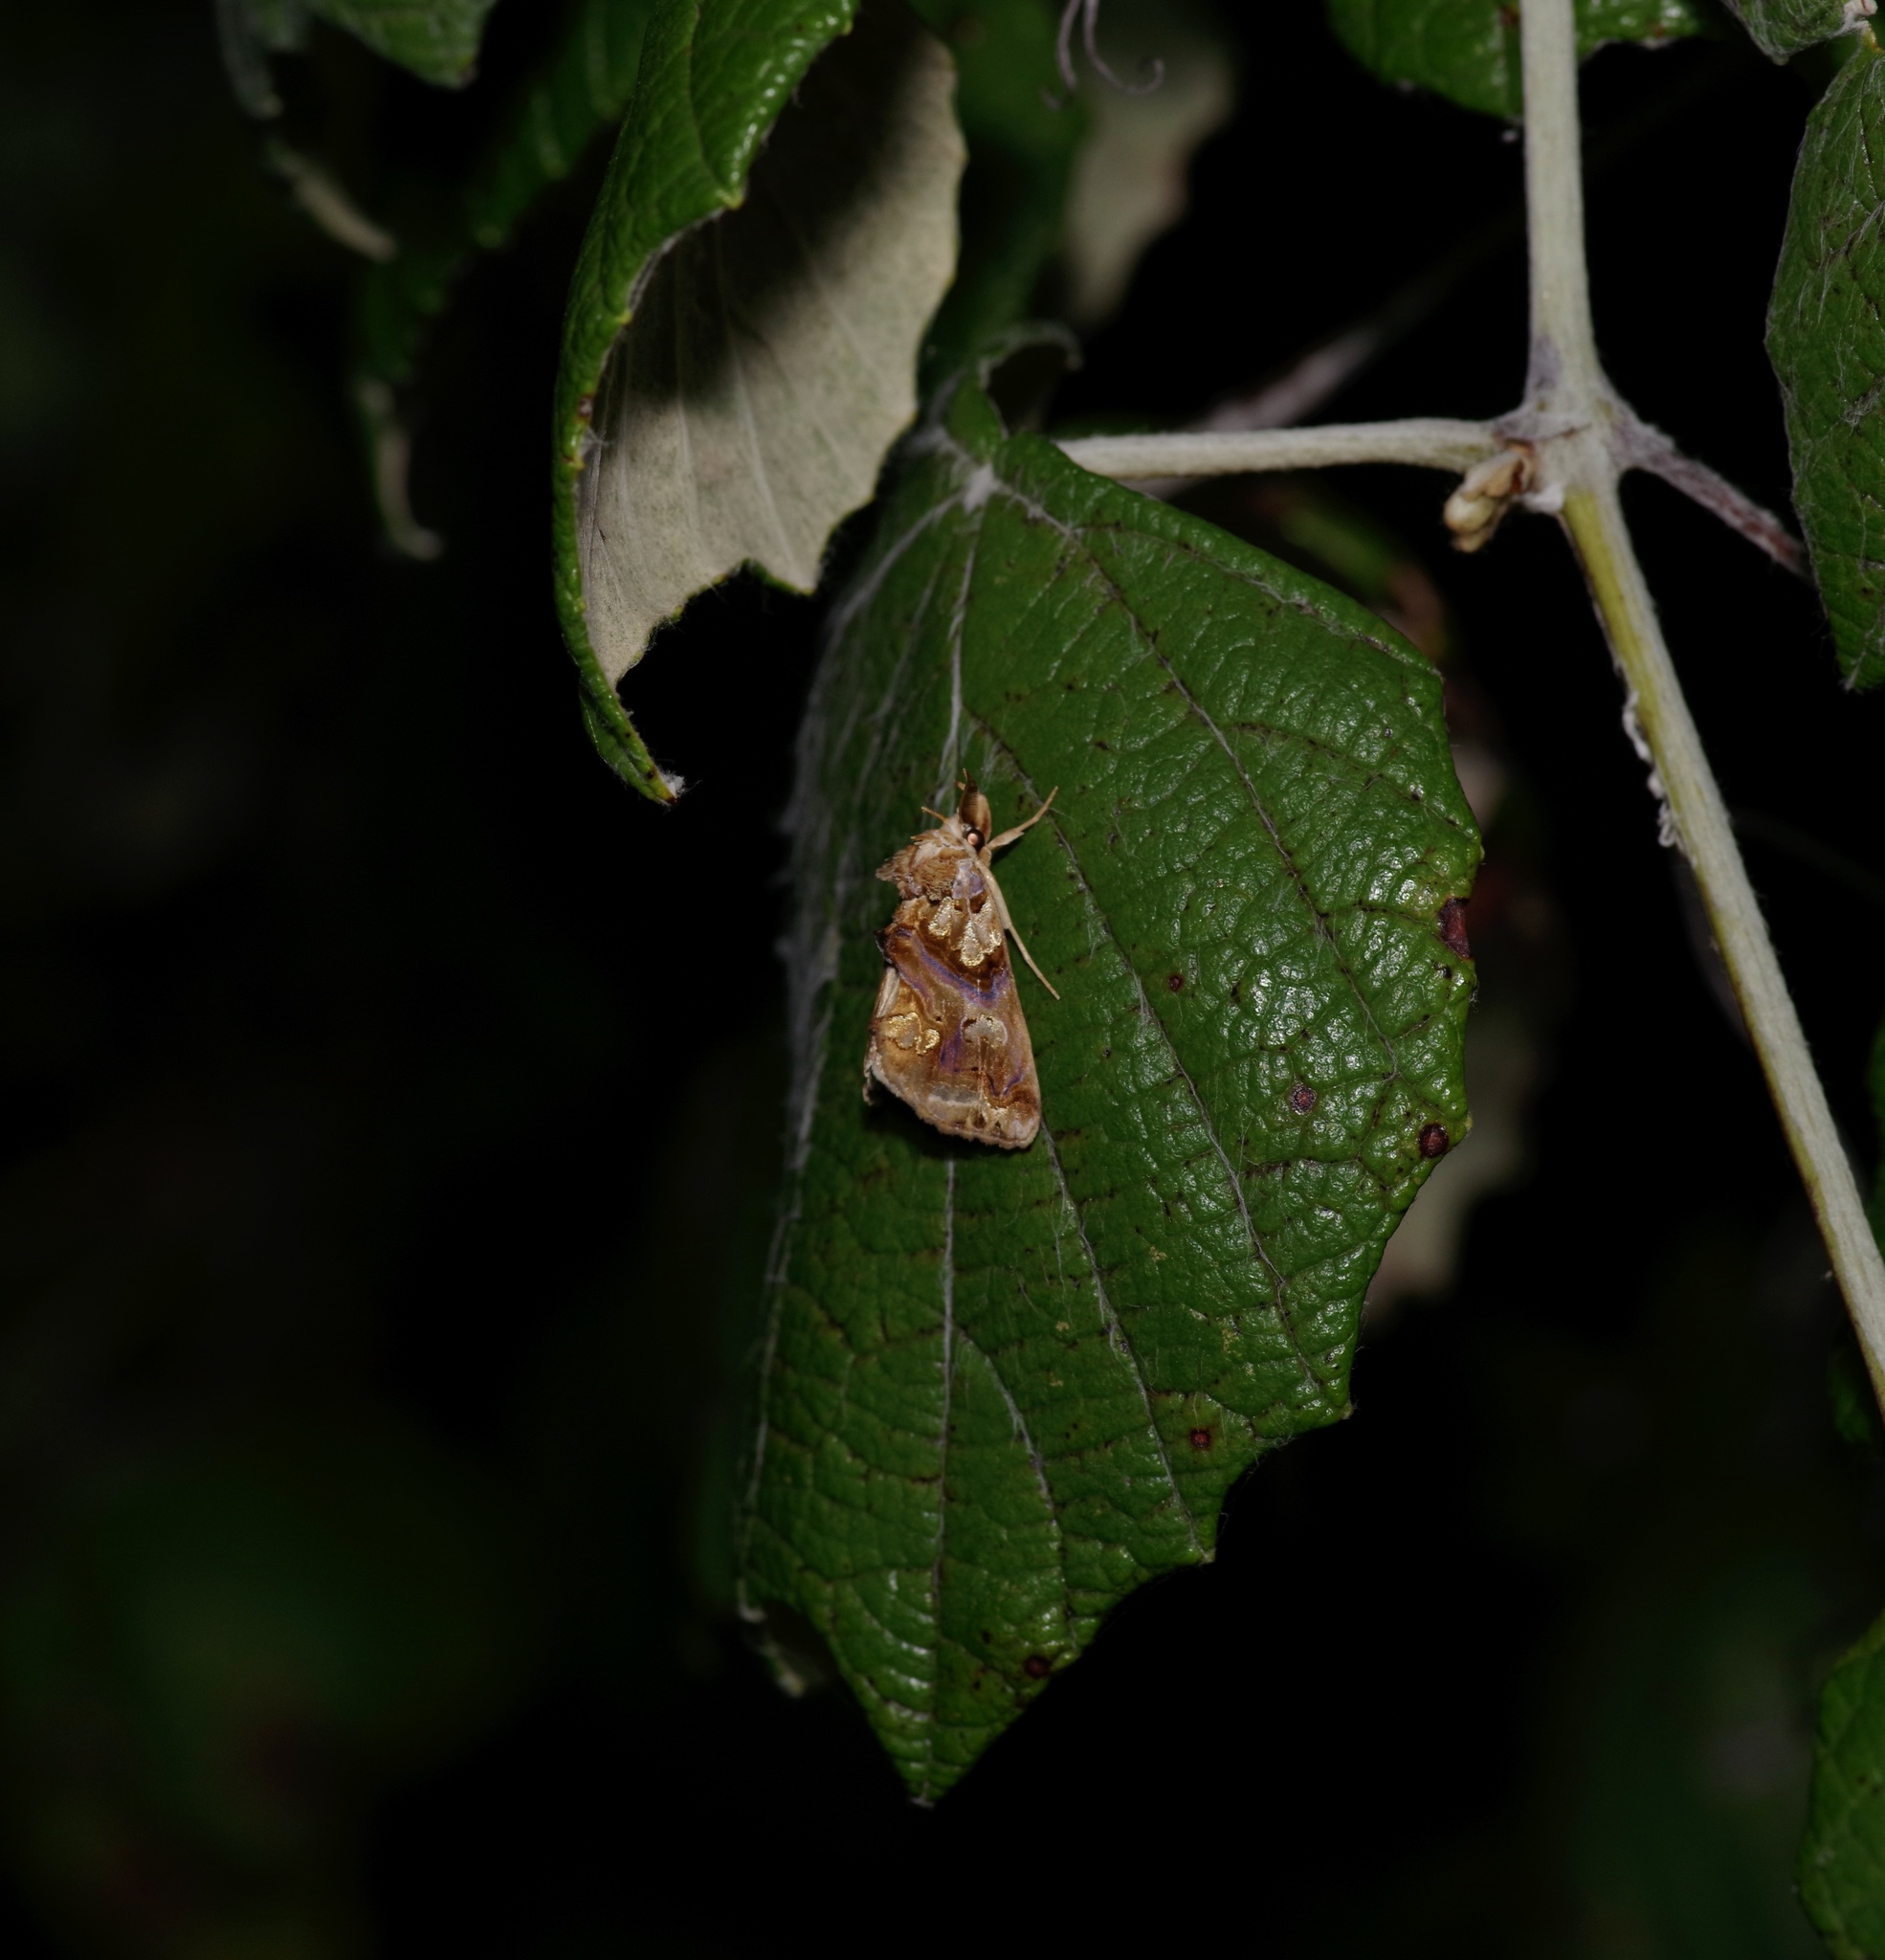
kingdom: Animalia
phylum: Arthropoda
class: Insecta
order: Lepidoptera
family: Erebidae
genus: Plusiodonta
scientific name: Plusiodonta compressipalpis
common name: Moonseed moth
